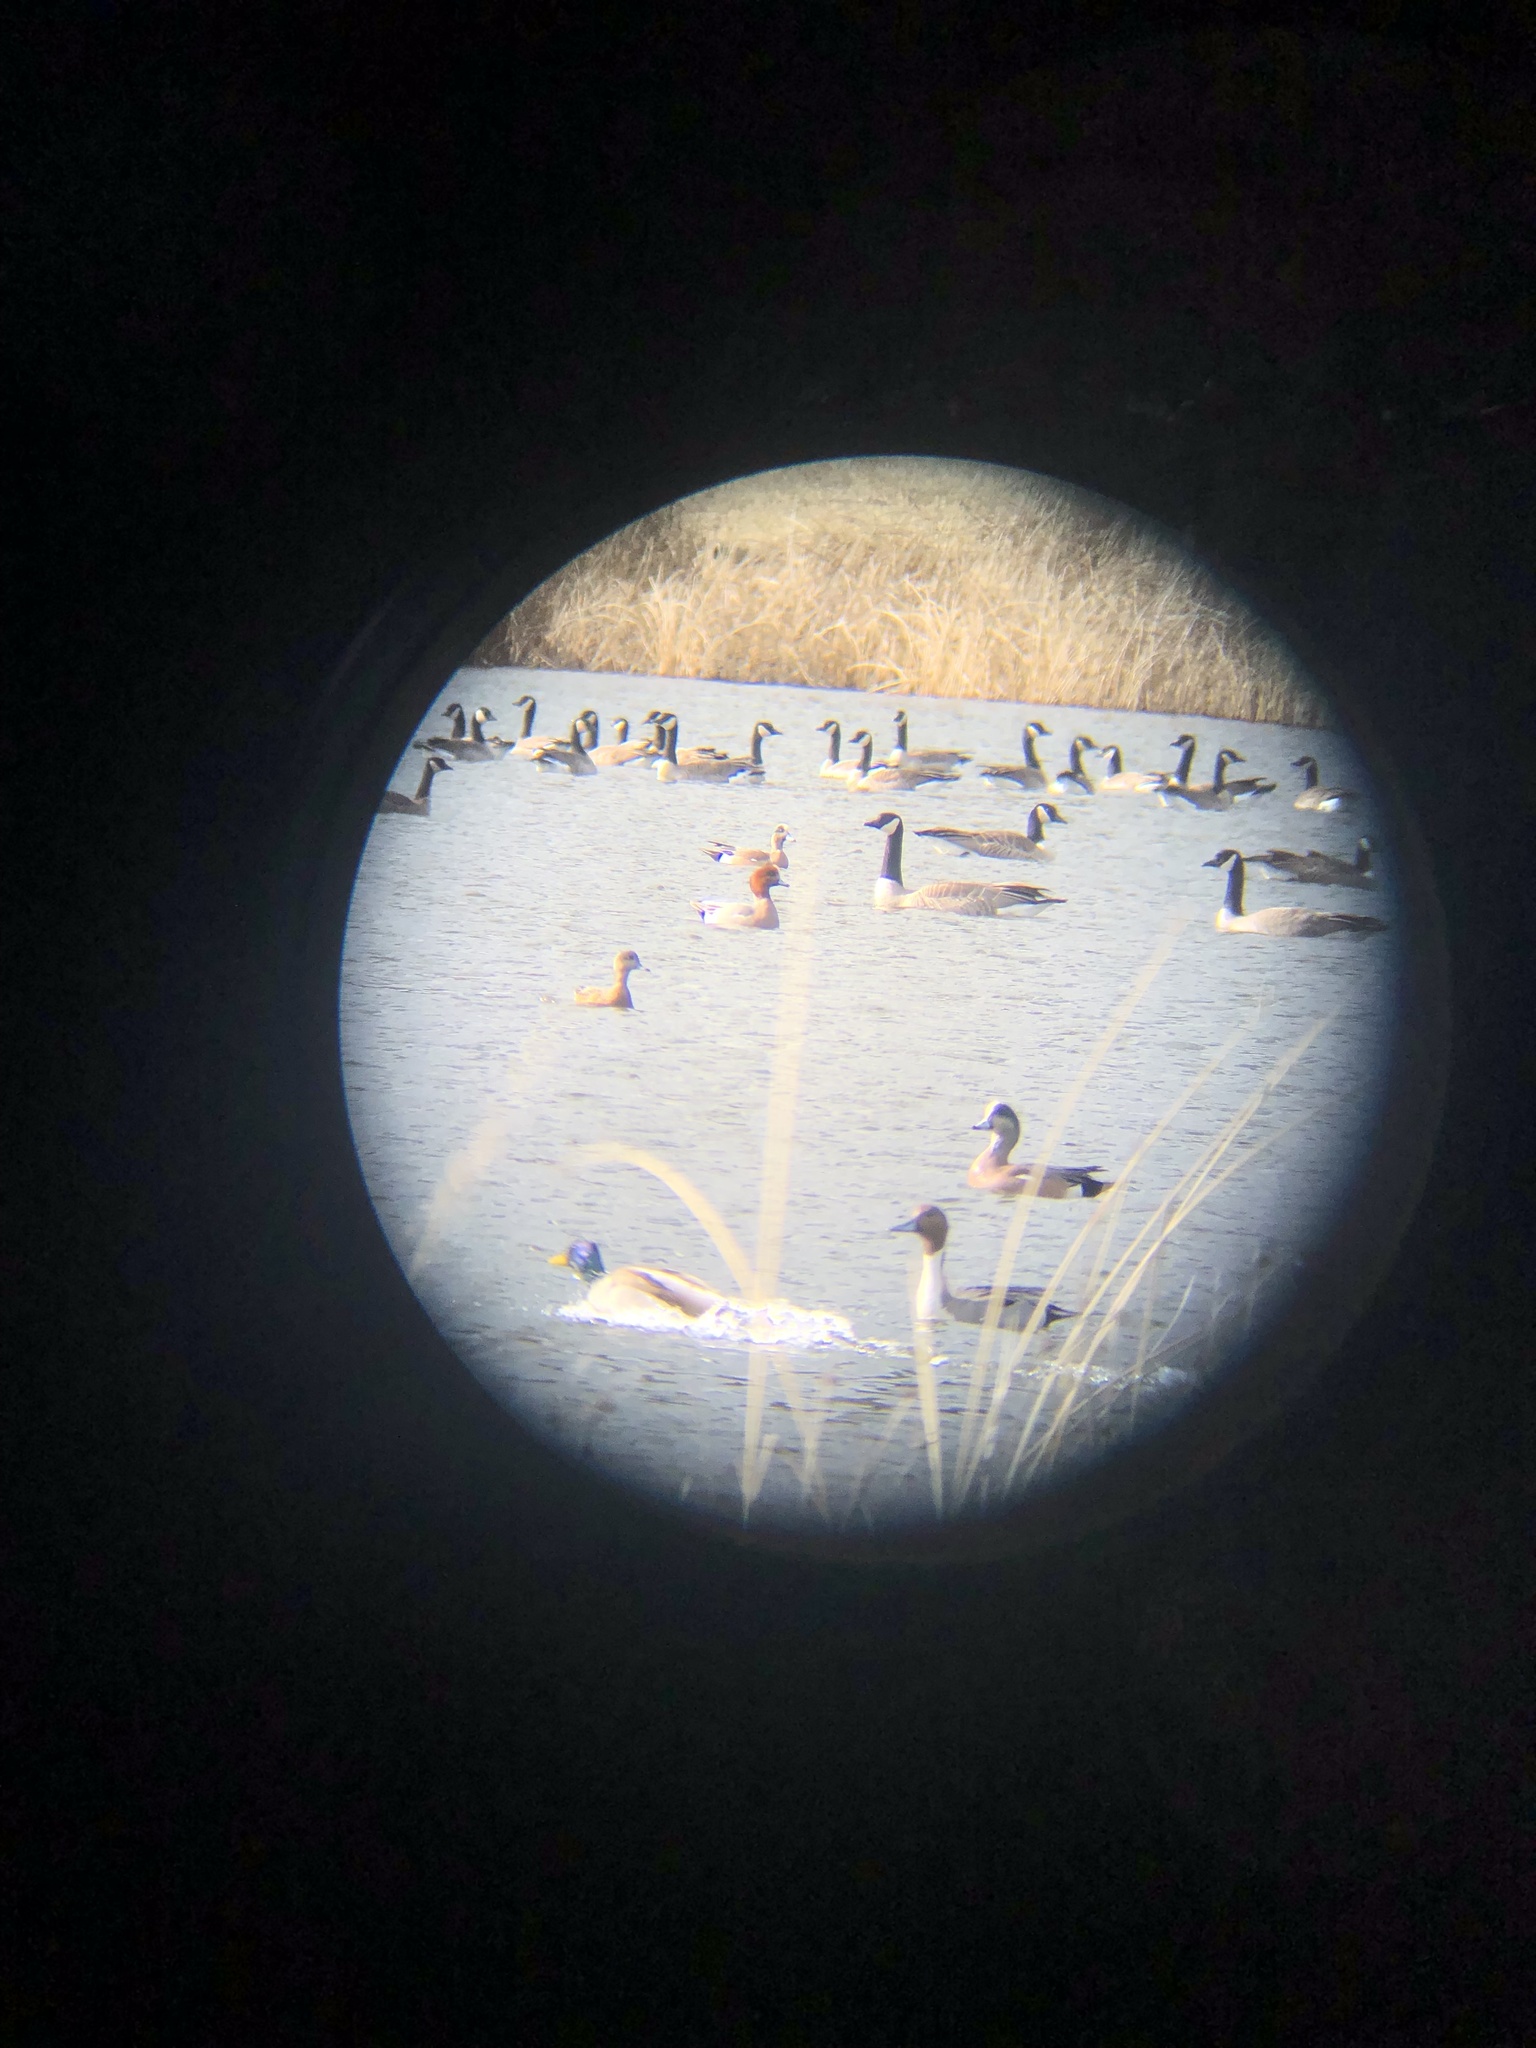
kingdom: Animalia
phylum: Chordata
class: Aves
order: Anseriformes
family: Anatidae
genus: Mareca
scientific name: Mareca penelope
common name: Eurasian wigeon
